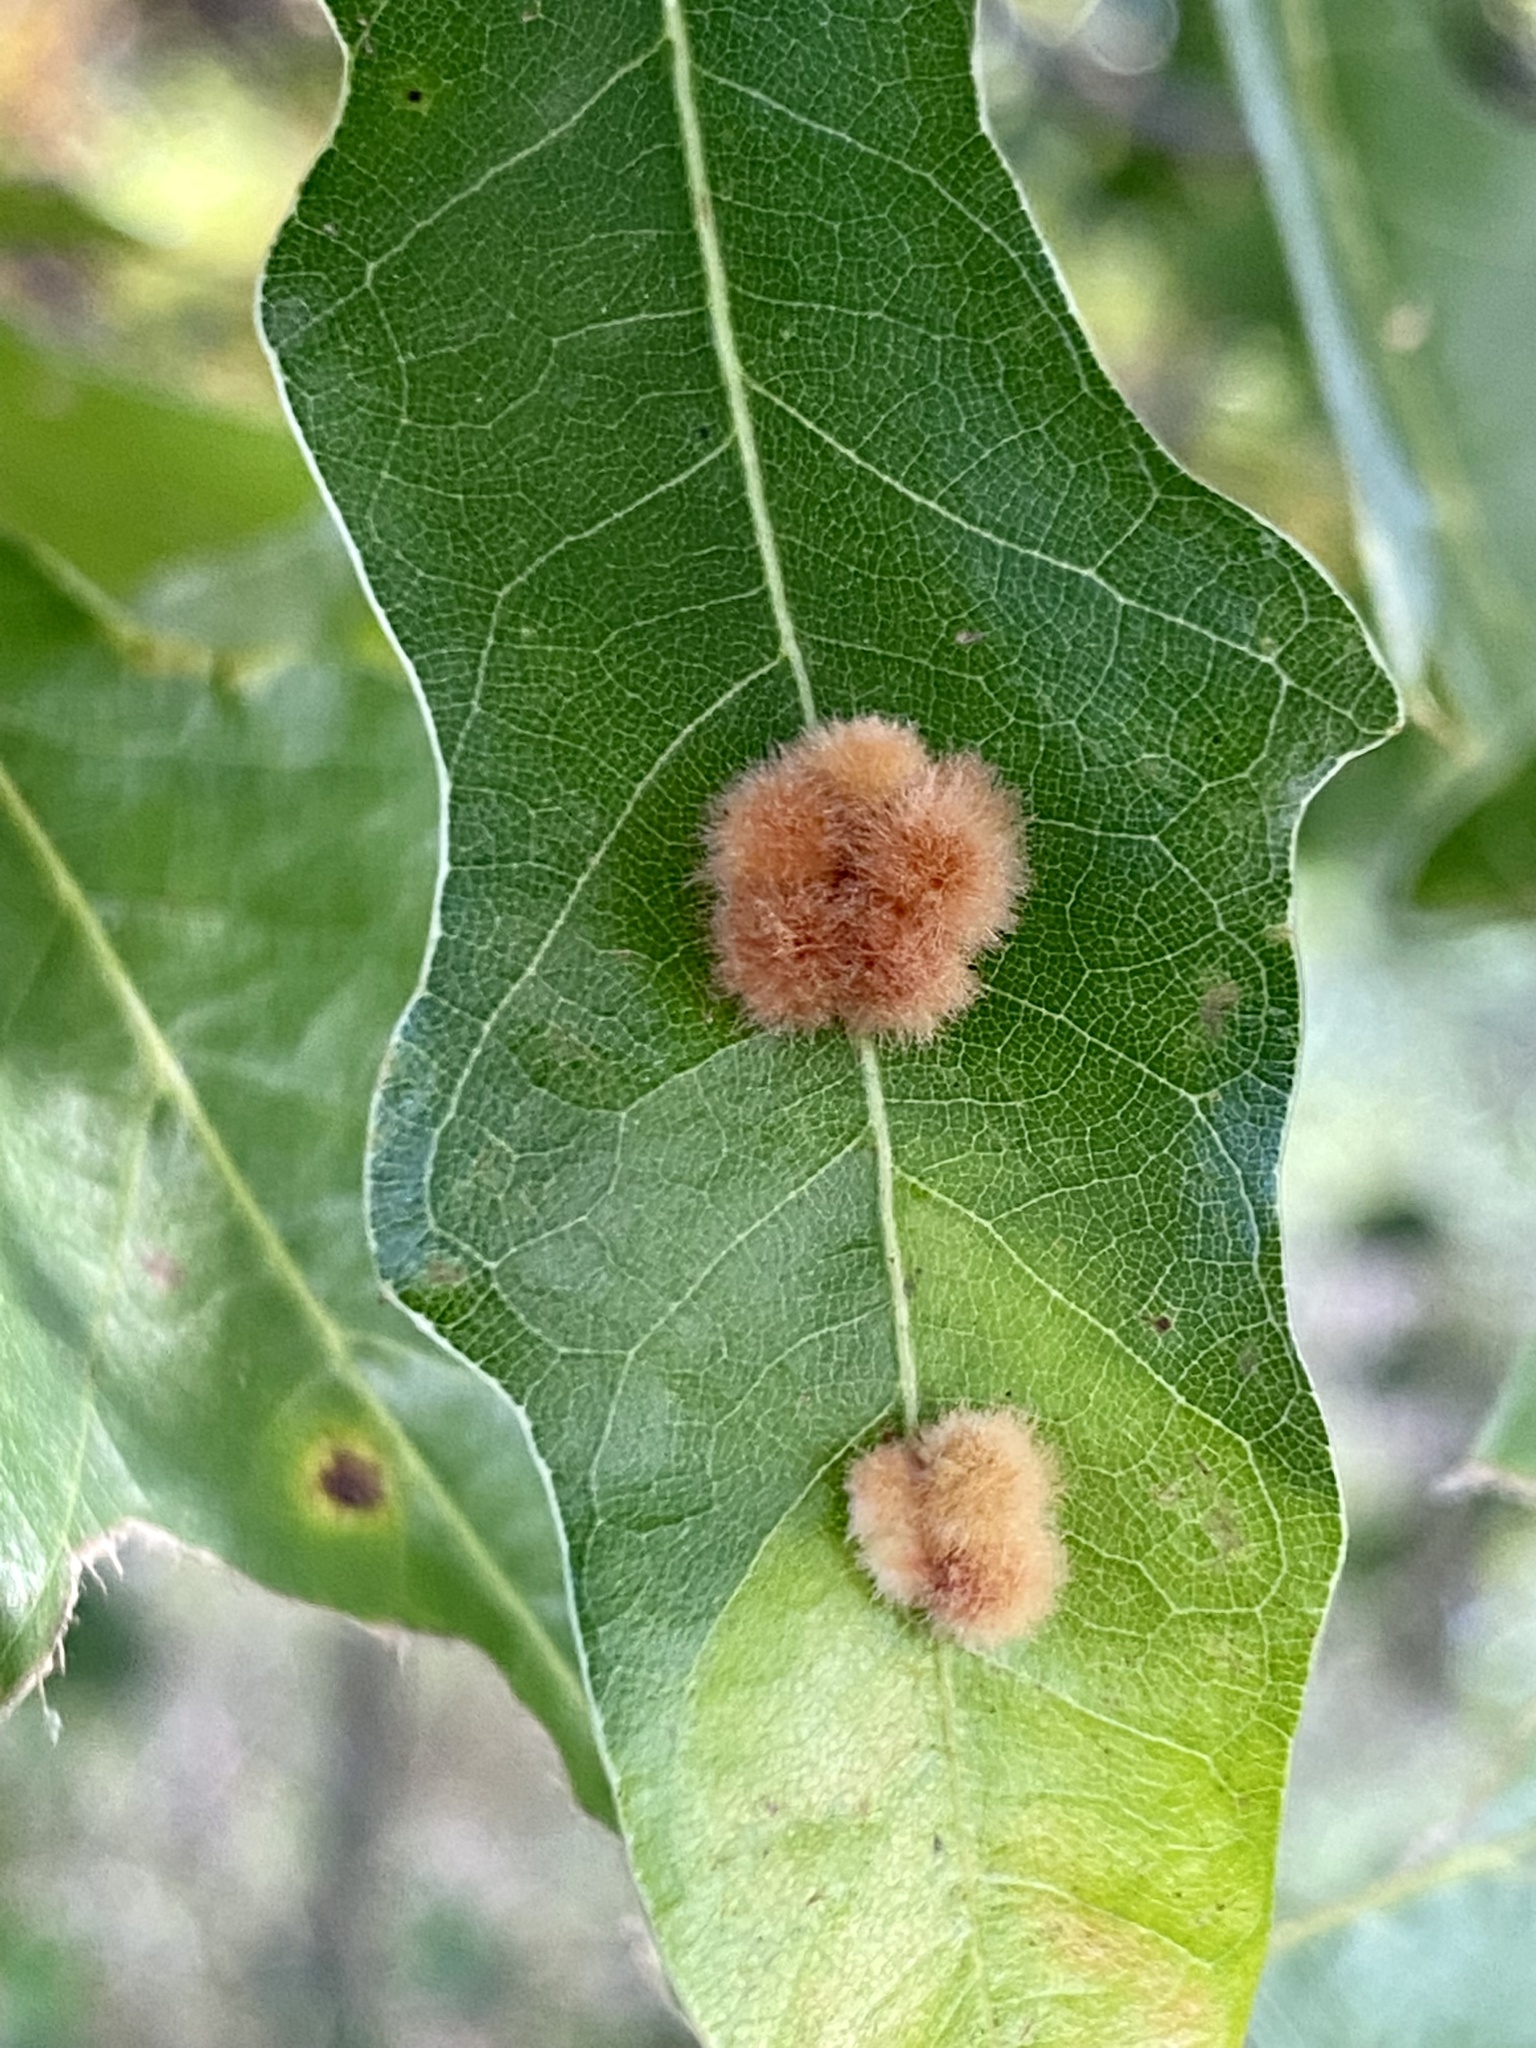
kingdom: Animalia
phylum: Arthropoda
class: Insecta
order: Hymenoptera
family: Cynipidae
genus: Callirhytis
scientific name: Callirhytis
